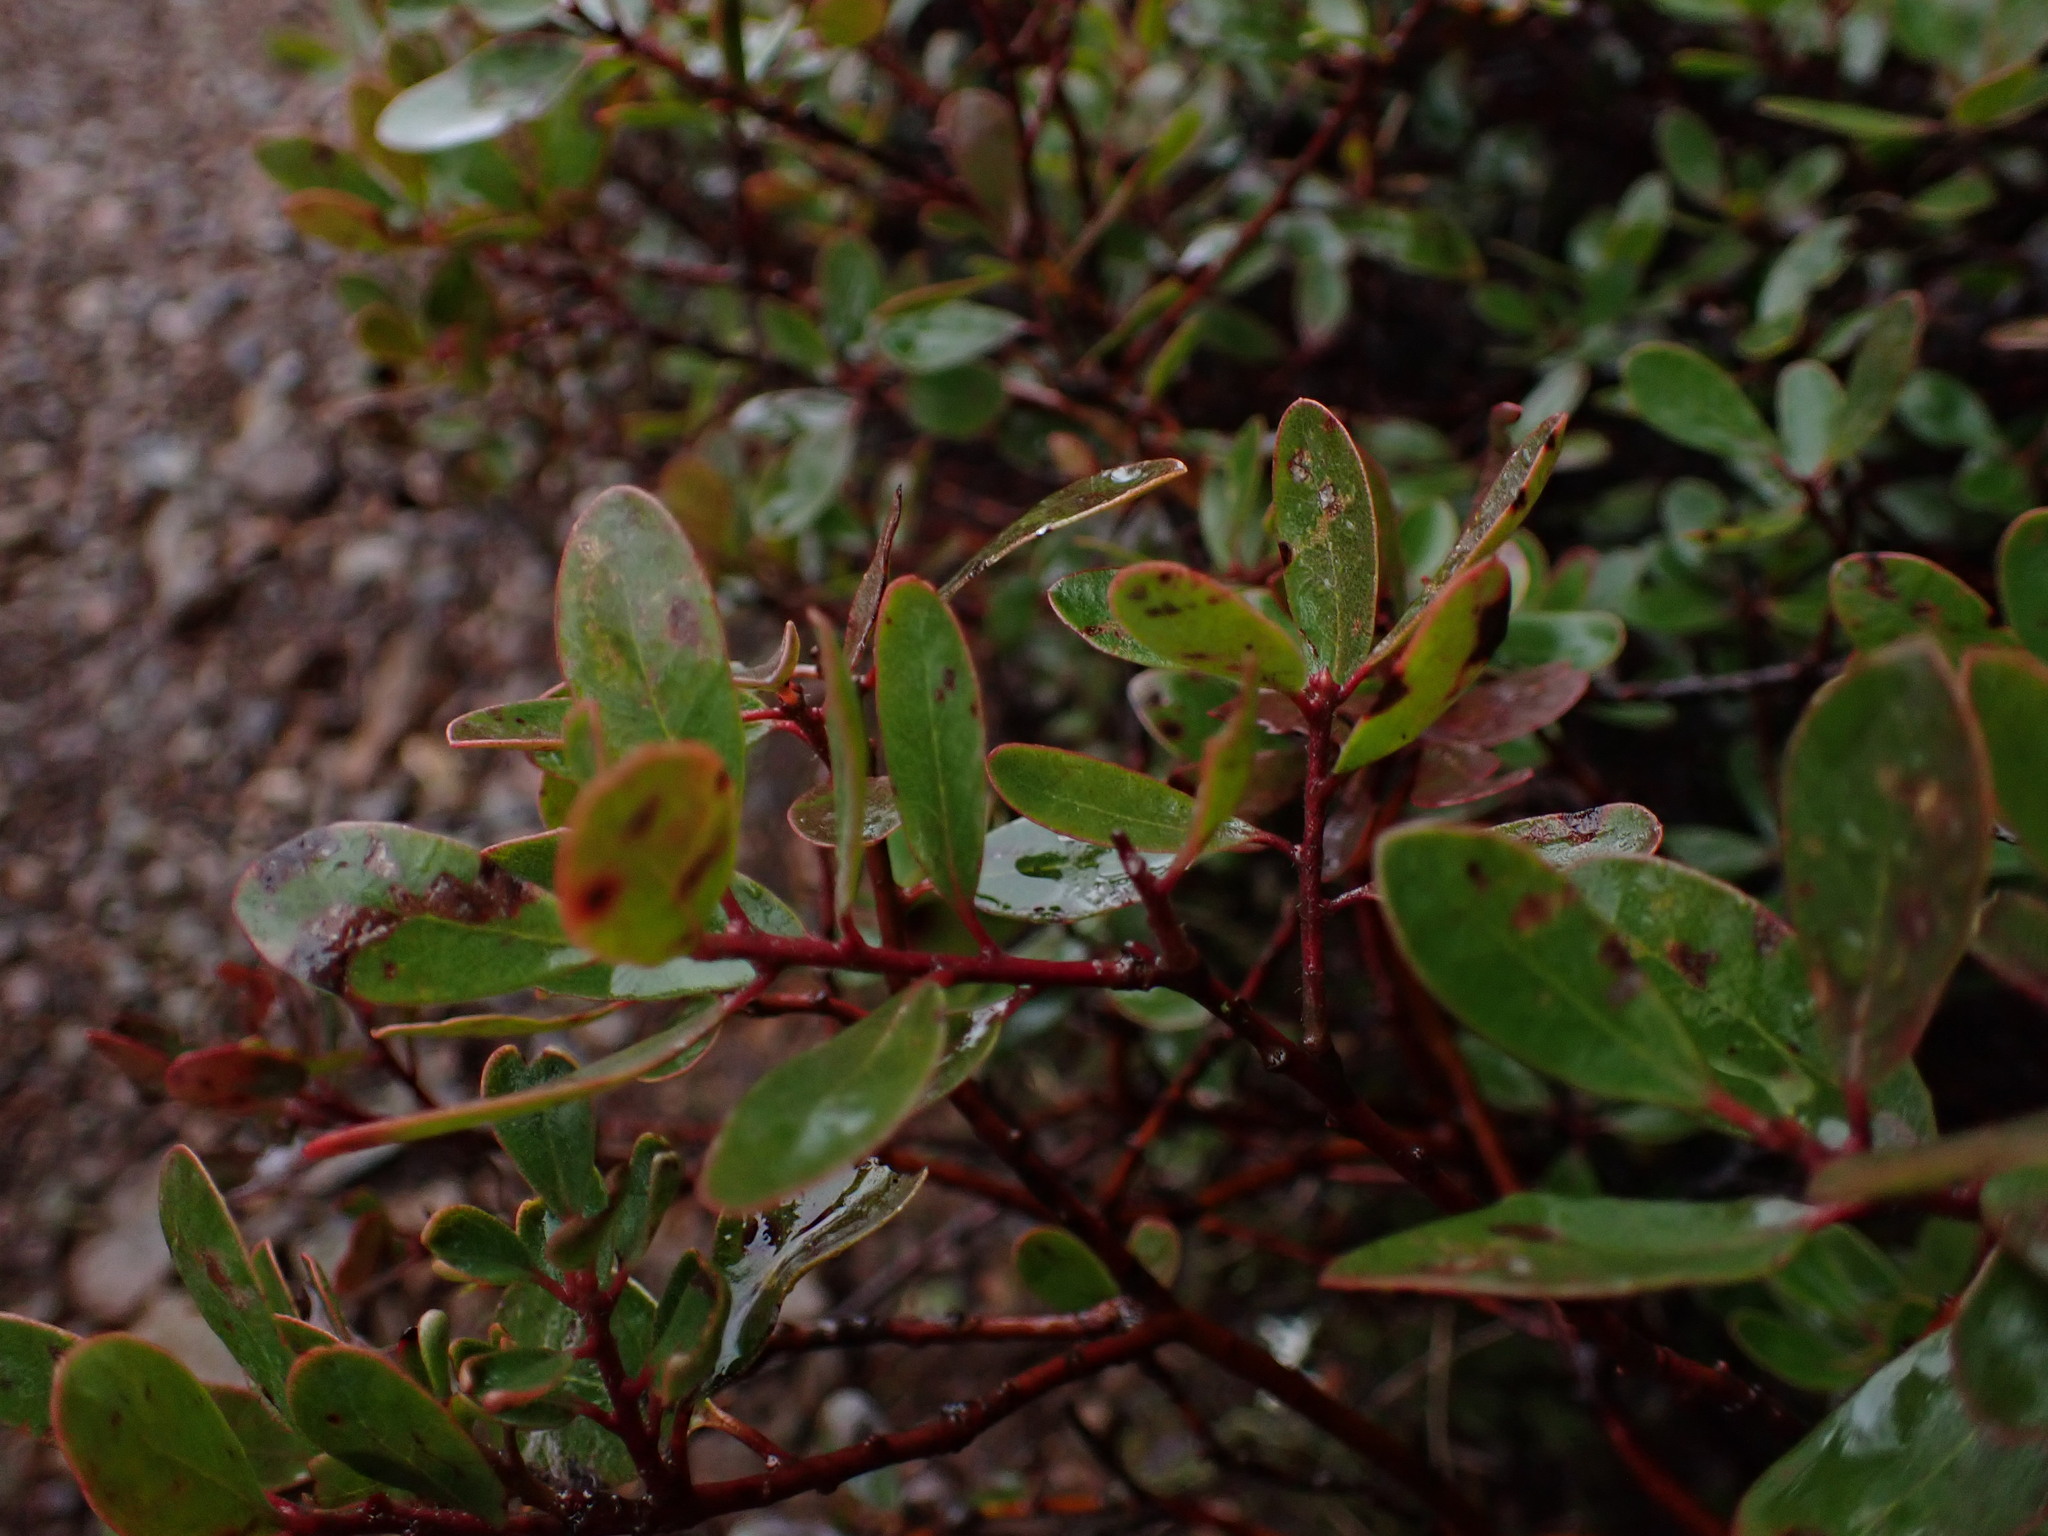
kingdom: Plantae
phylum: Tracheophyta
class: Magnoliopsida
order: Ericales
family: Ericaceae
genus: Arctostaphylos
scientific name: Arctostaphylos uva-ursi
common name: Bearberry
